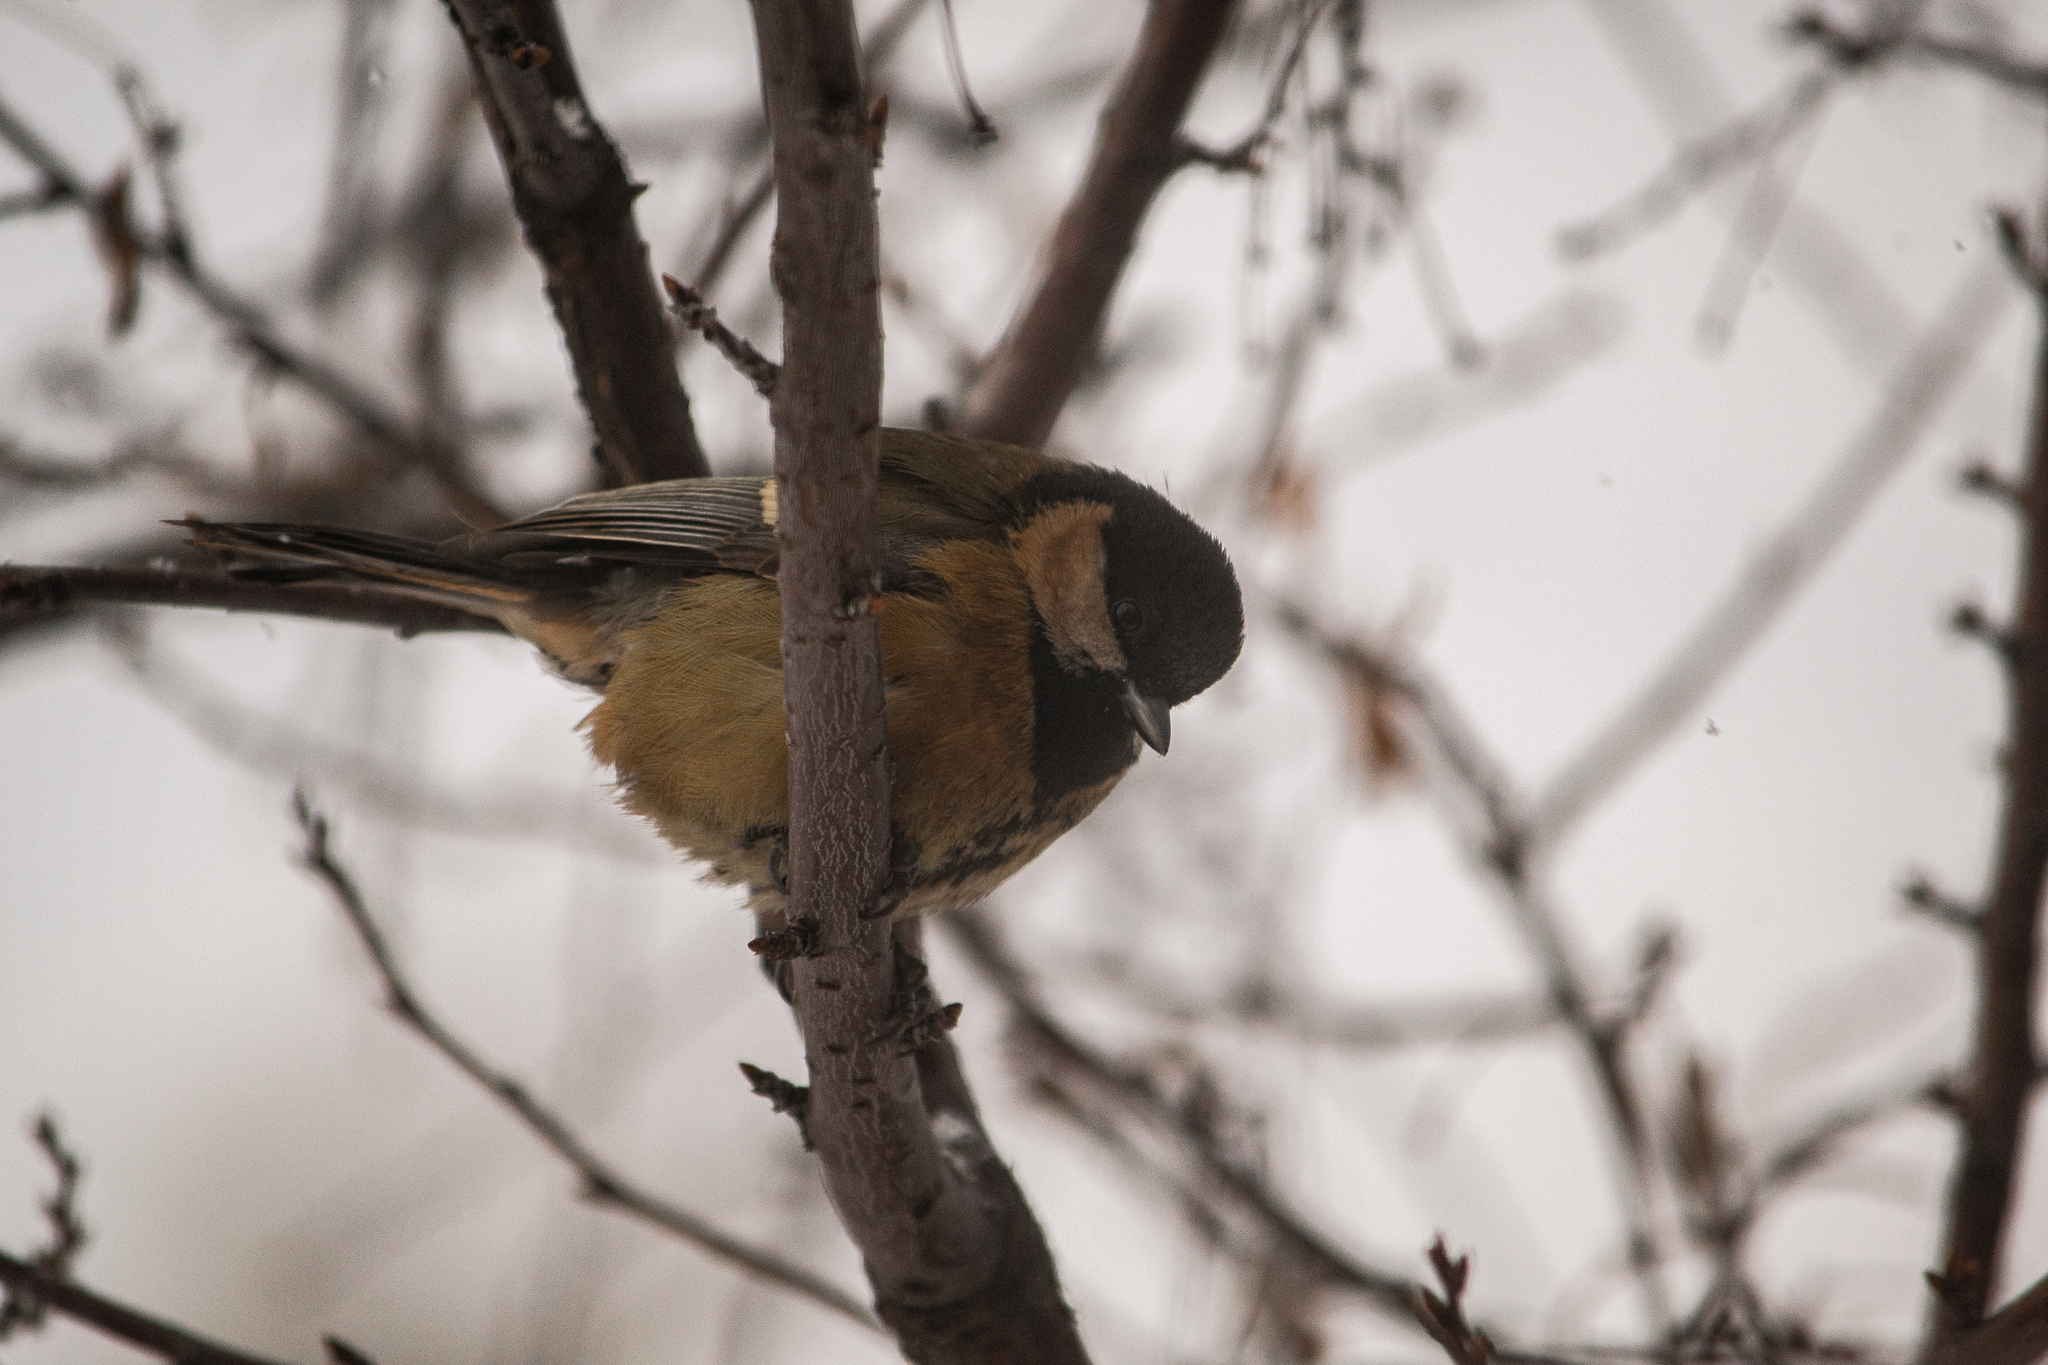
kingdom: Animalia
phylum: Chordata
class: Aves
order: Passeriformes
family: Paridae
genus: Parus
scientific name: Parus major
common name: Great tit
